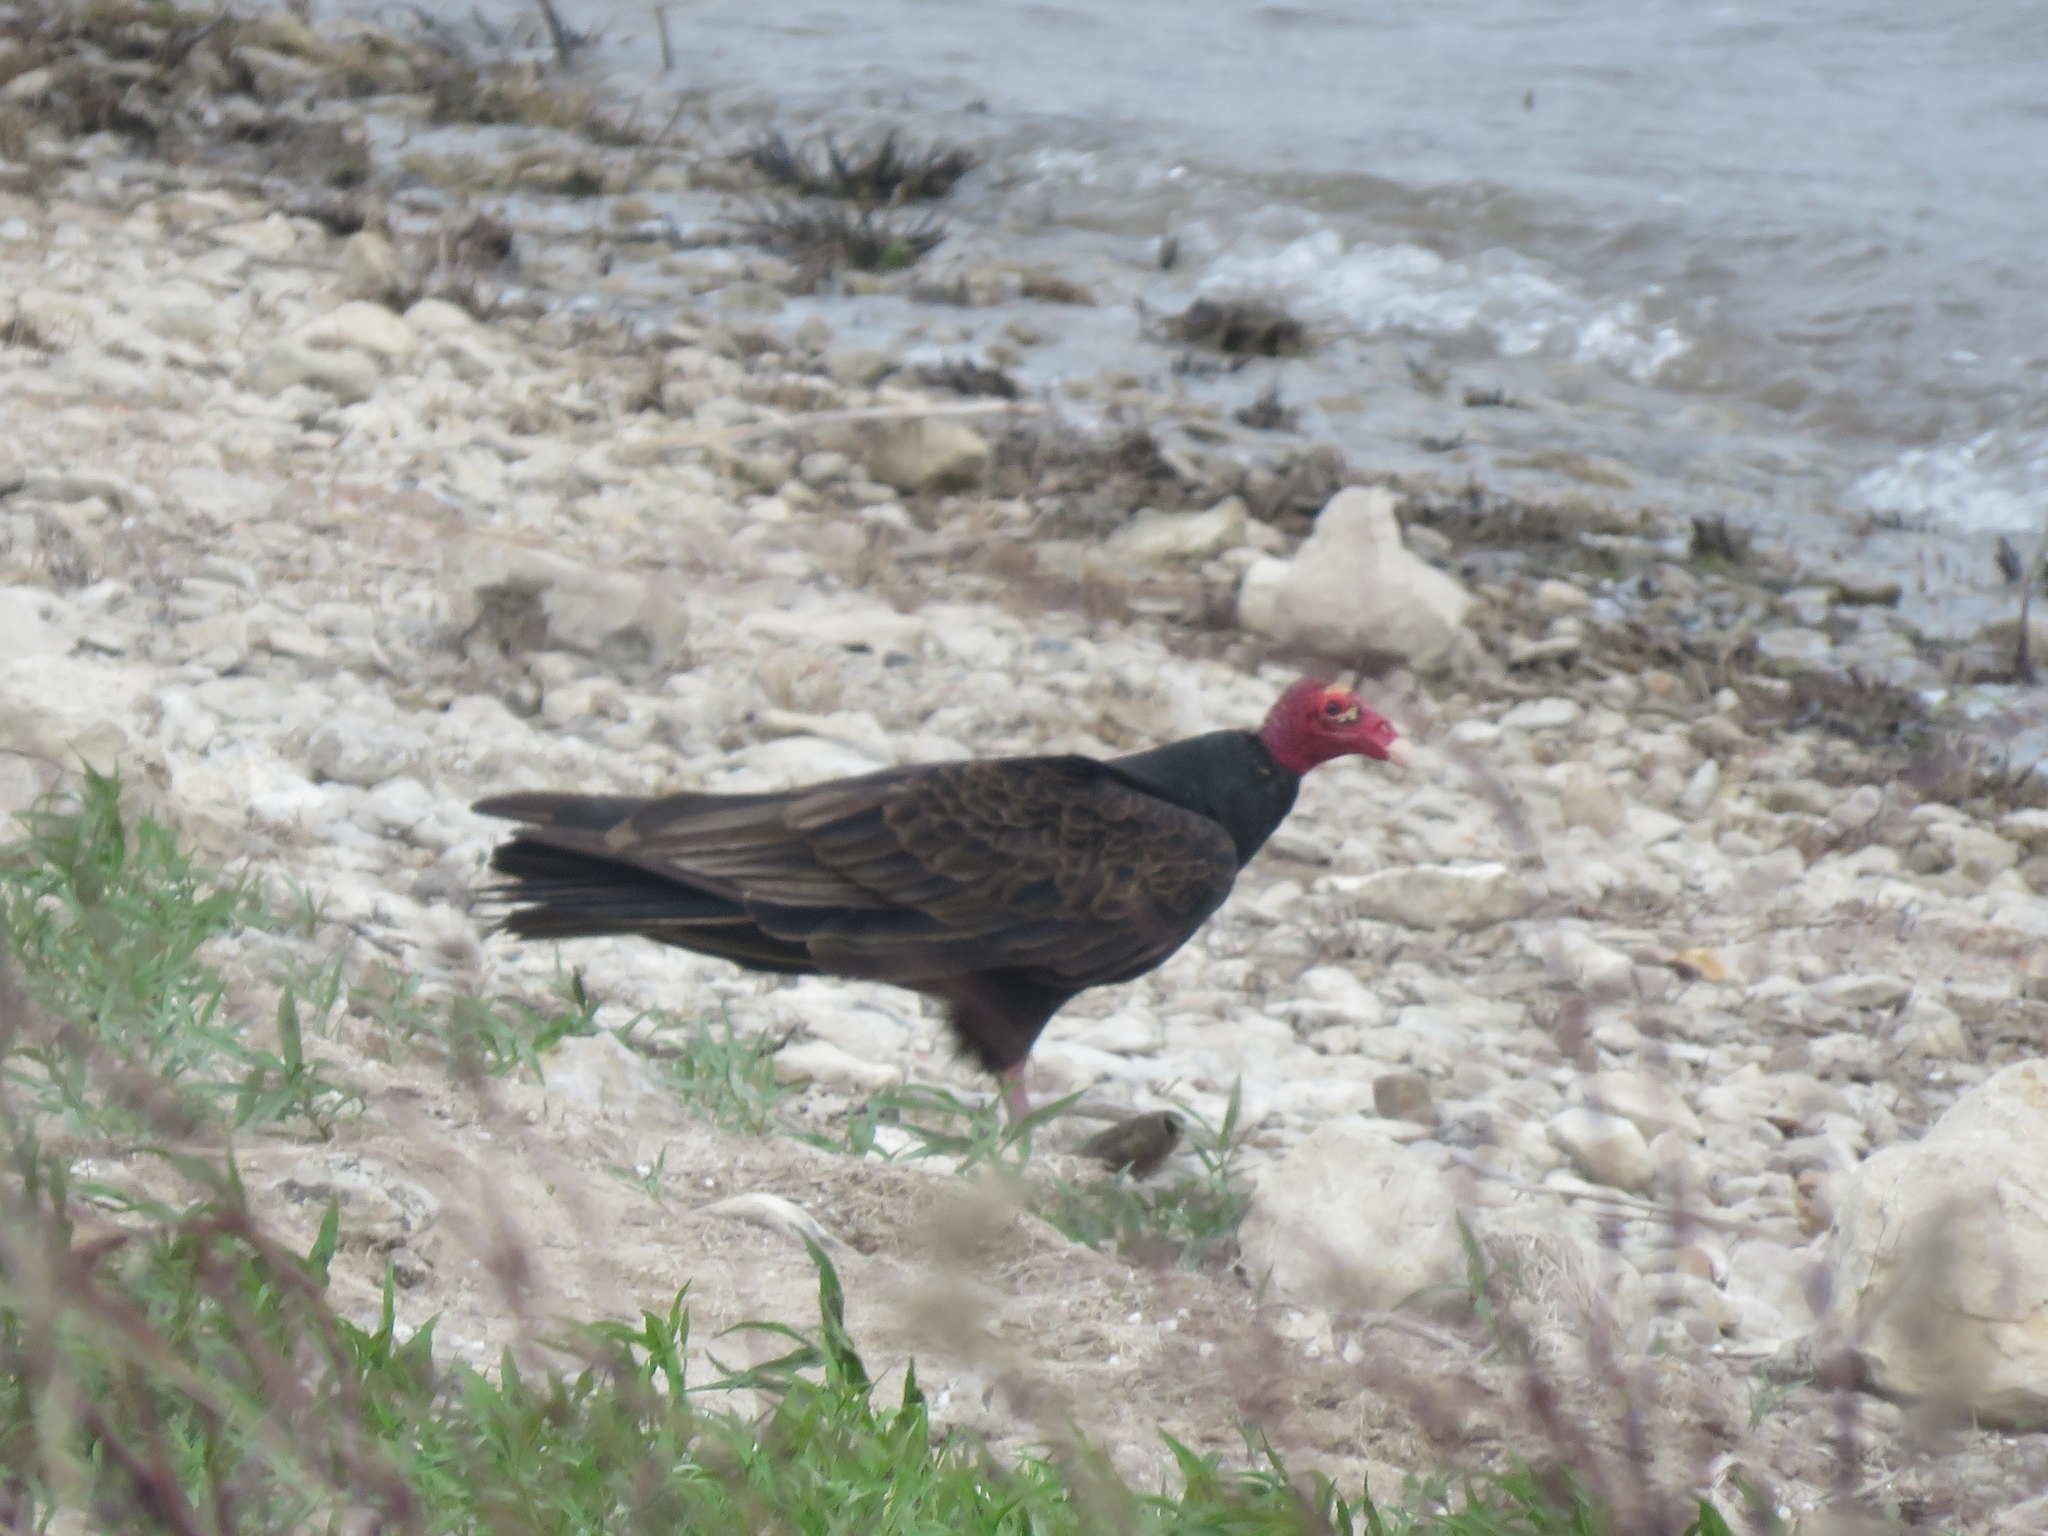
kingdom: Animalia
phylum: Chordata
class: Aves
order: Accipitriformes
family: Cathartidae
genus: Cathartes
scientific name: Cathartes aura
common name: Turkey vulture
